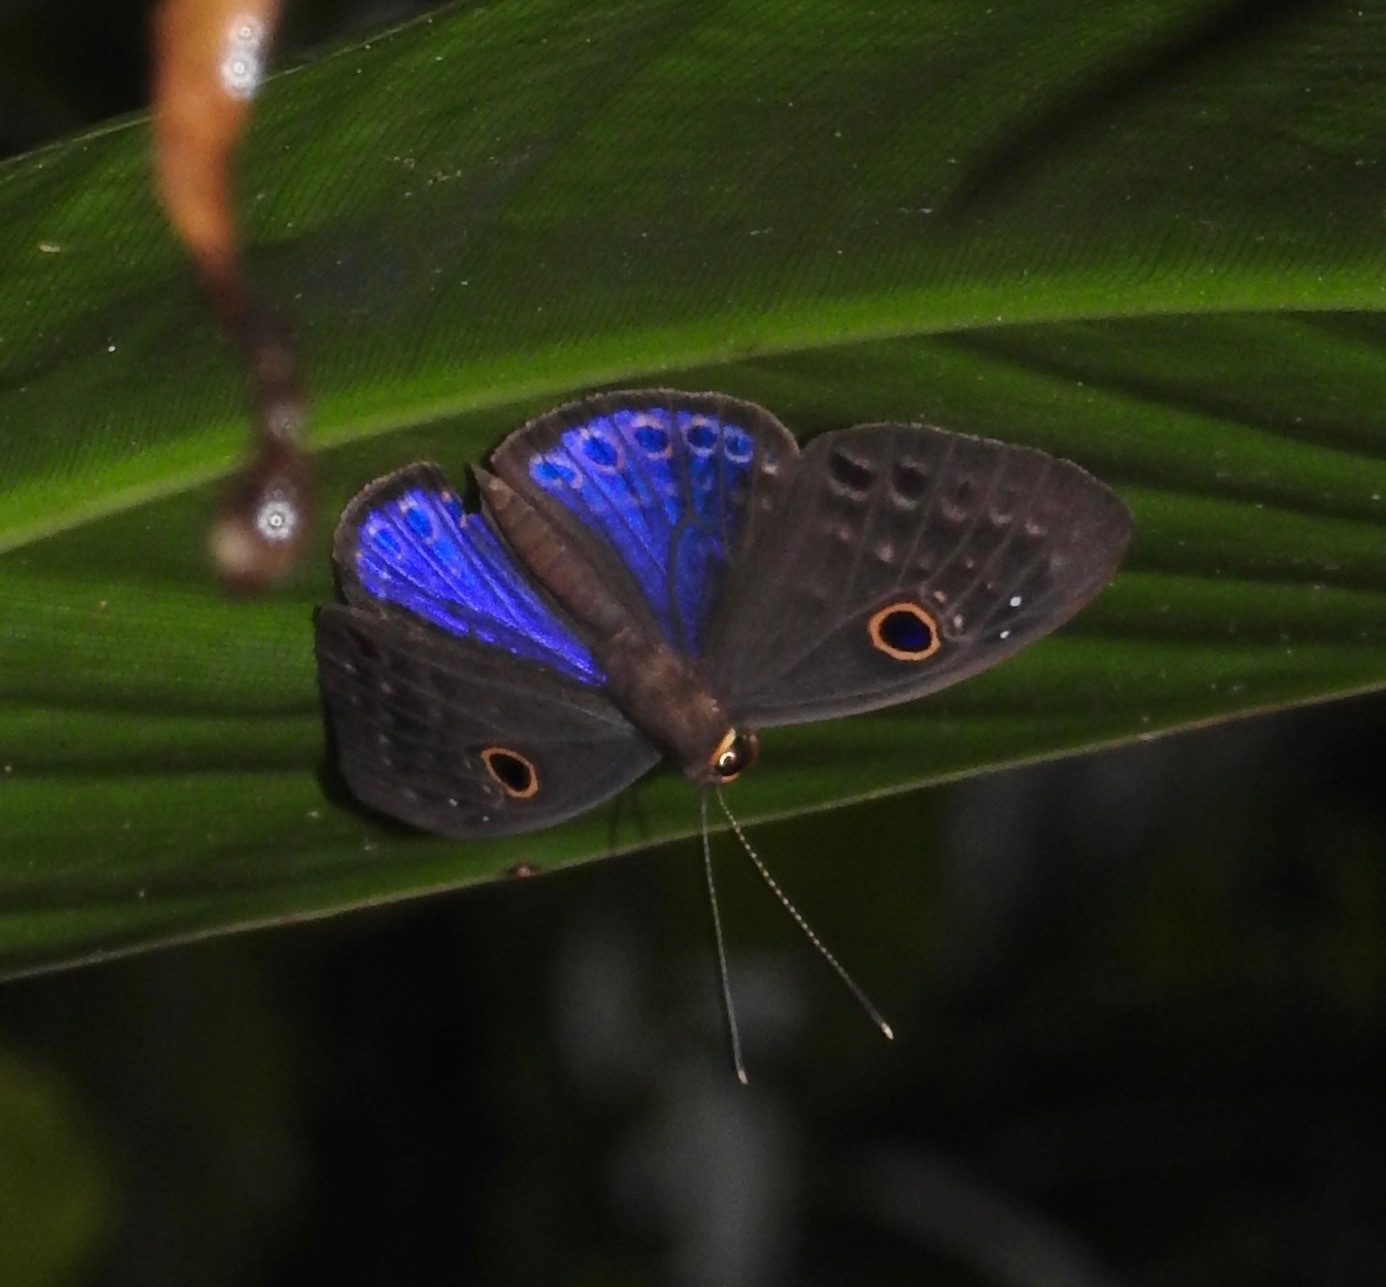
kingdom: Animalia
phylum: Cnidaria
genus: Eurybia
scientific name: Eurybia lamia
